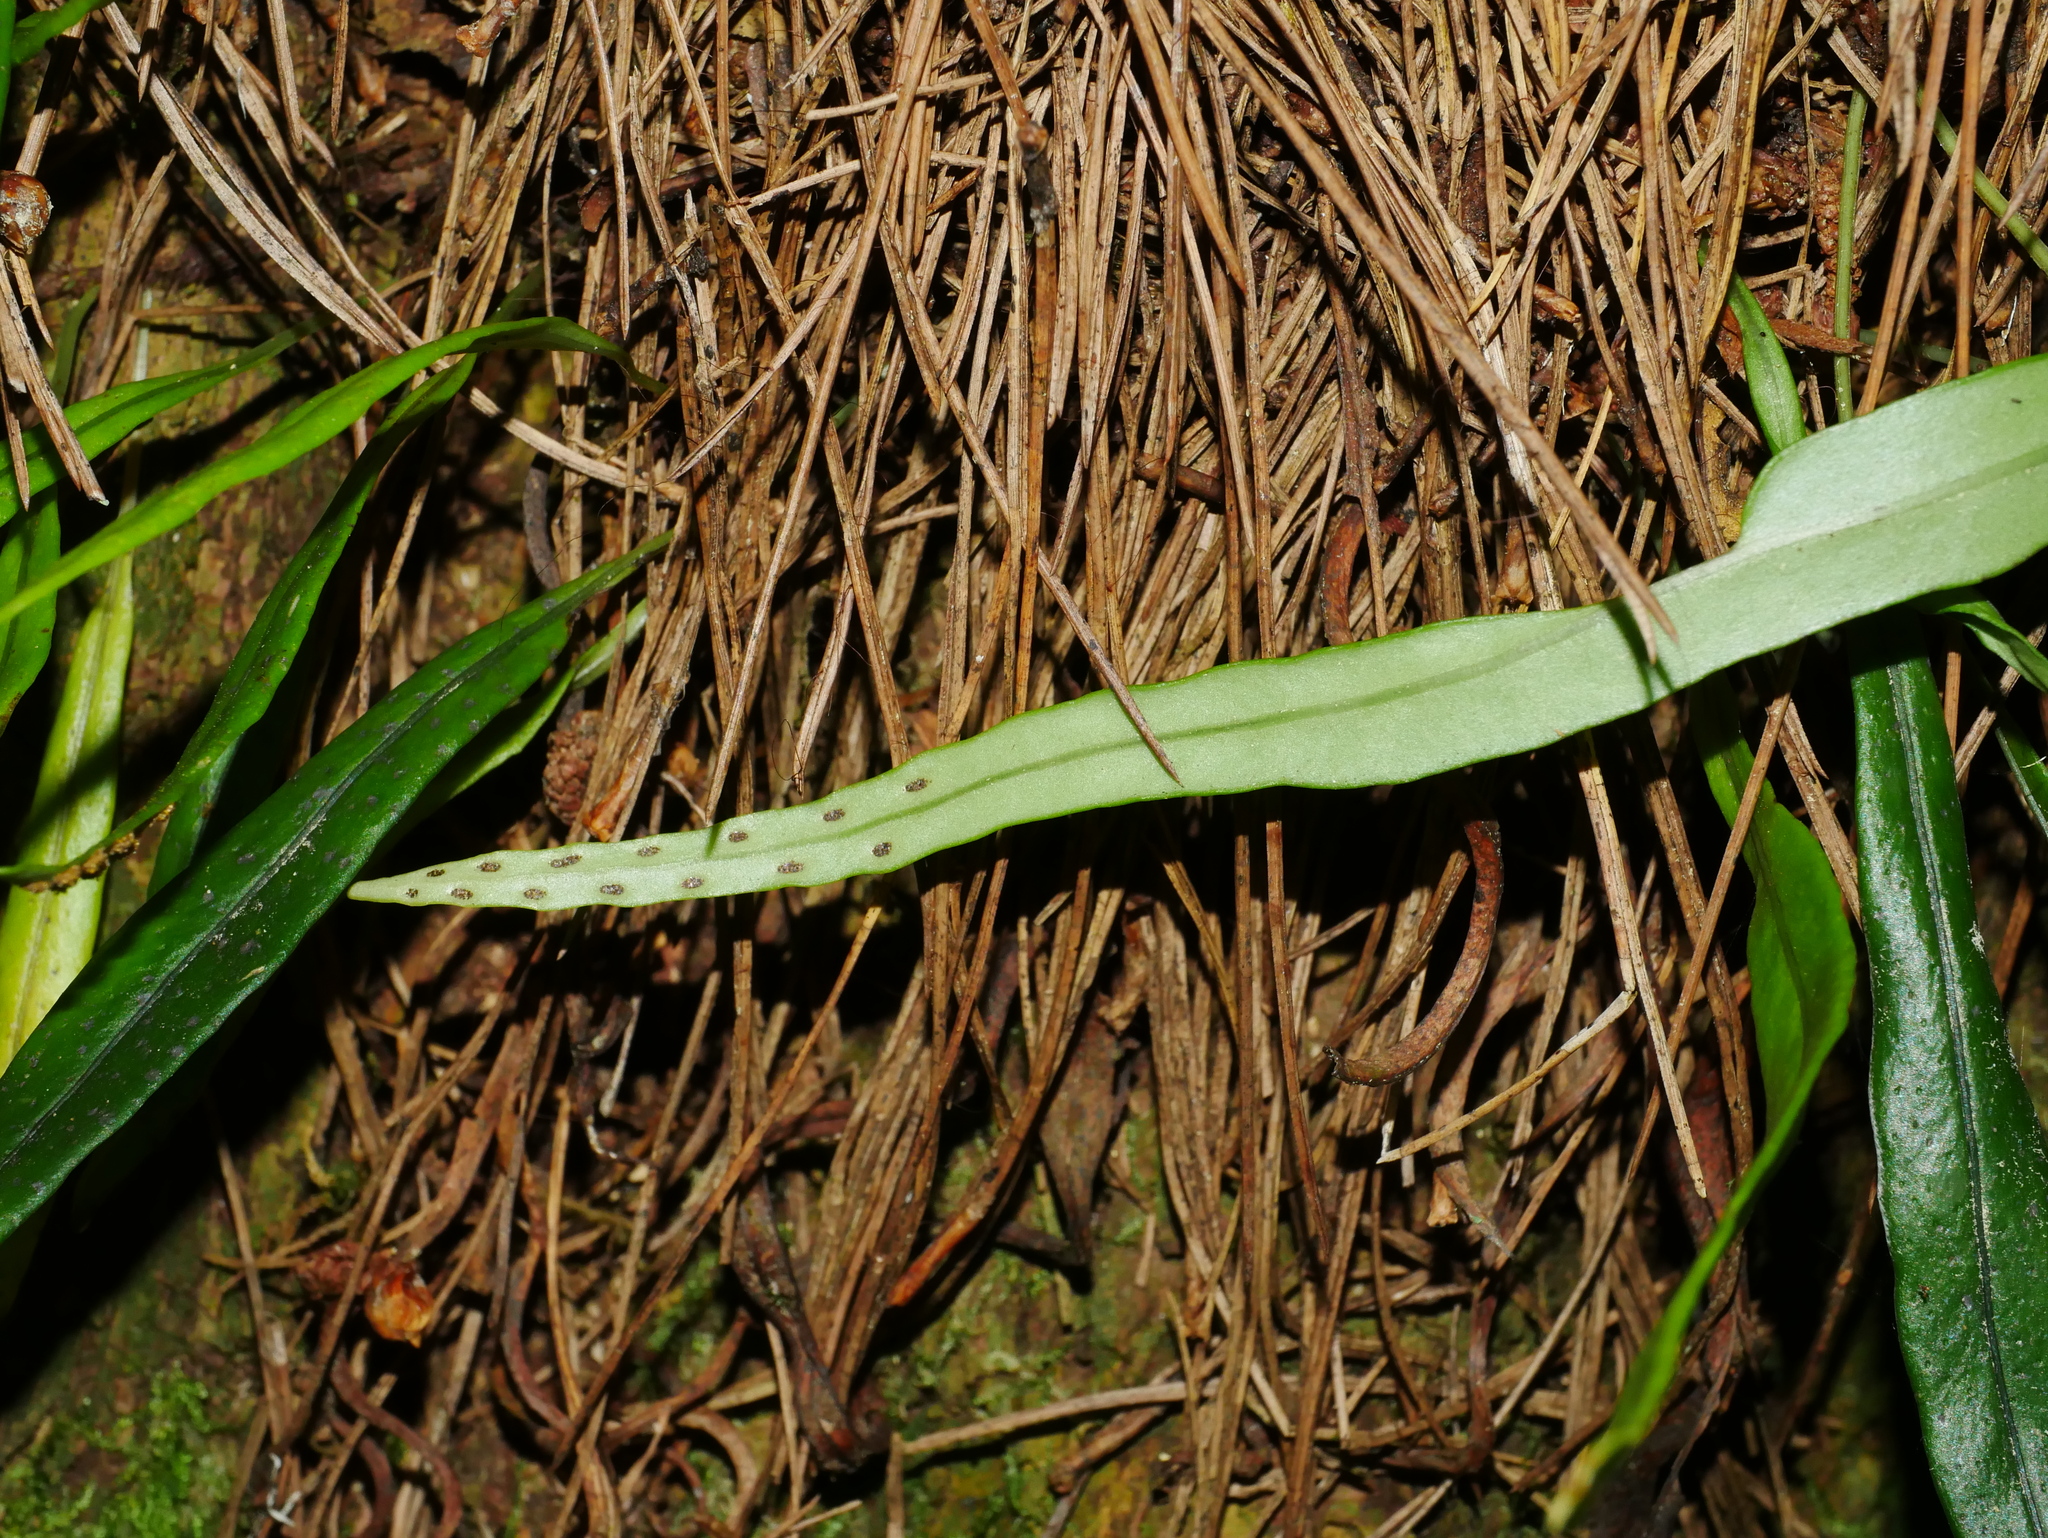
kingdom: Plantae
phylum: Tracheophyta
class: Polypodiopsida
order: Polypodiales
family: Polypodiaceae
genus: Lepisorus
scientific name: Lepisorus monilisorus
